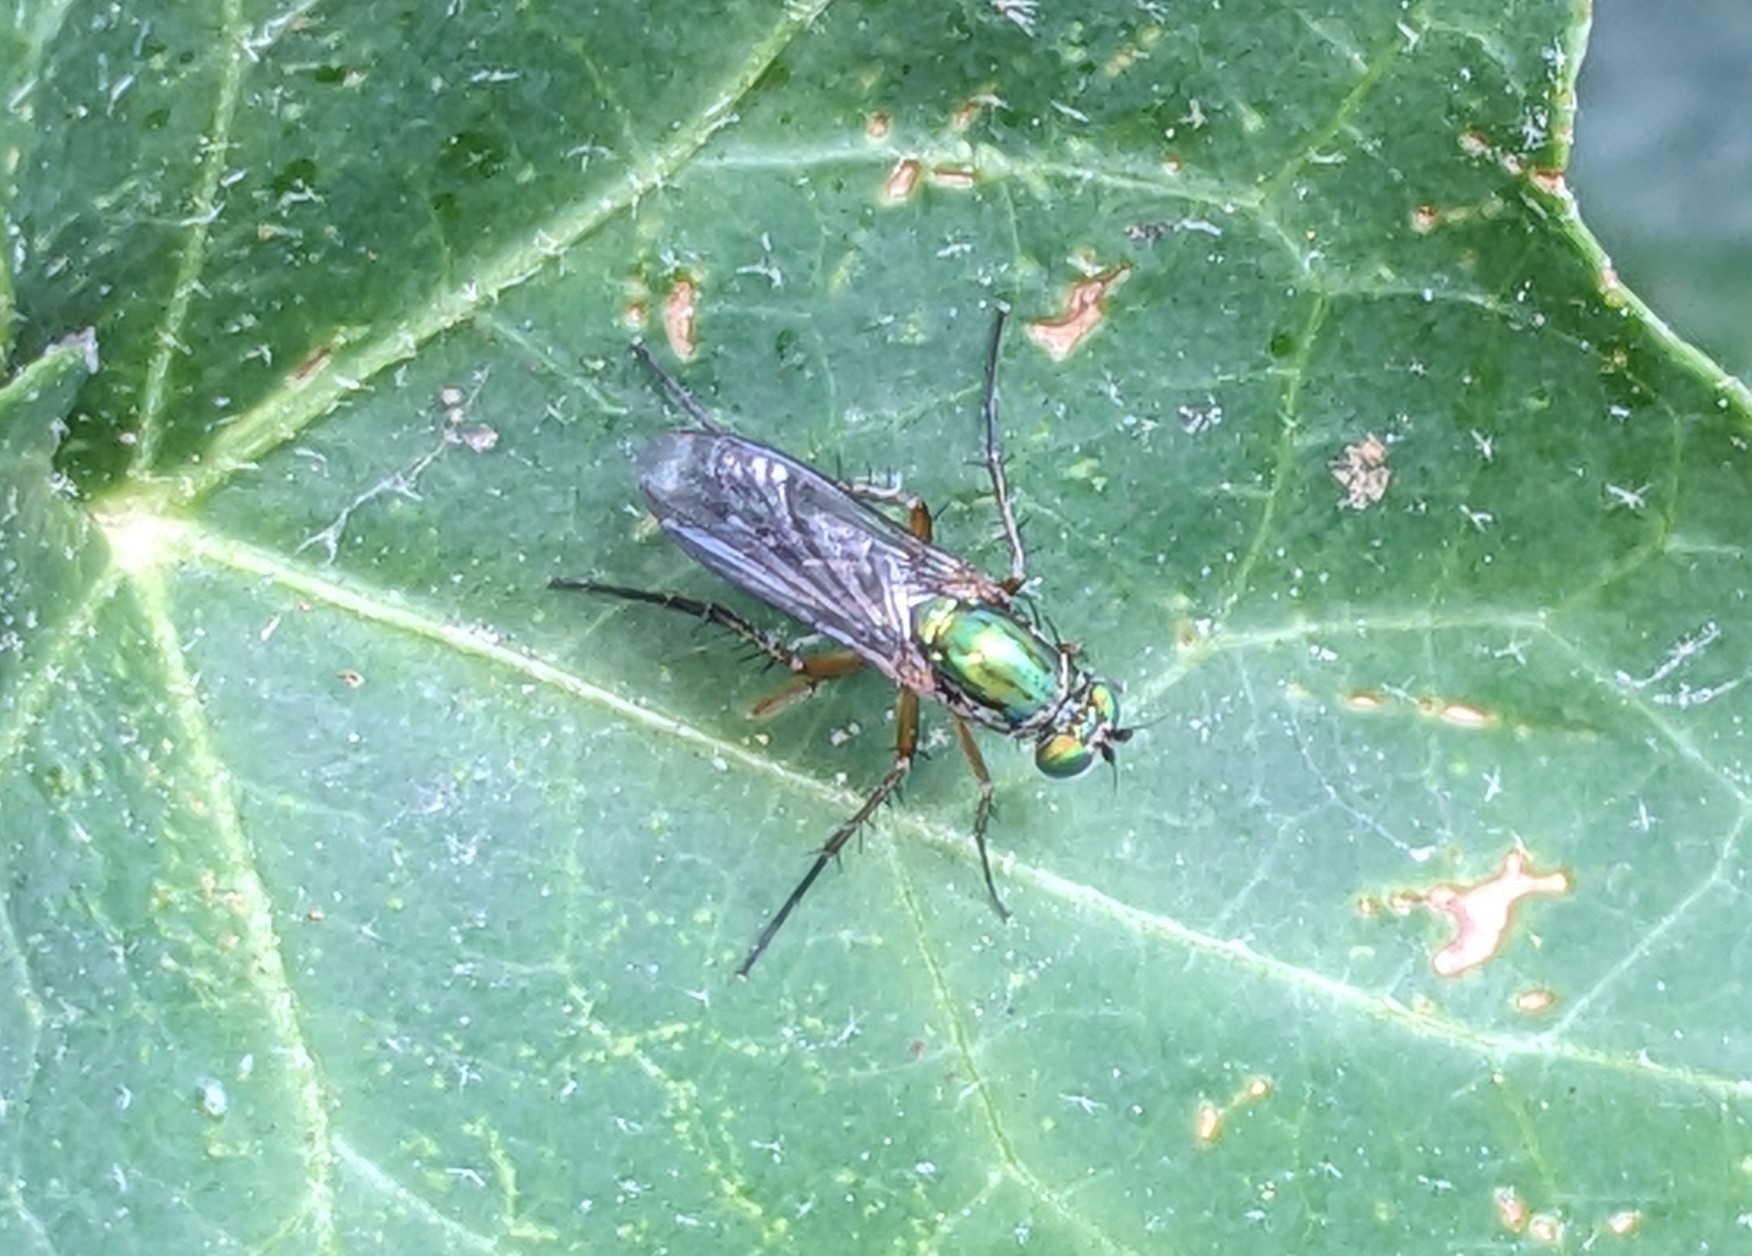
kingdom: Animalia
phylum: Arthropoda
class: Insecta
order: Diptera
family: Dolichopodidae
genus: Poecilobothrus
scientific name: Poecilobothrus nobilitatus
